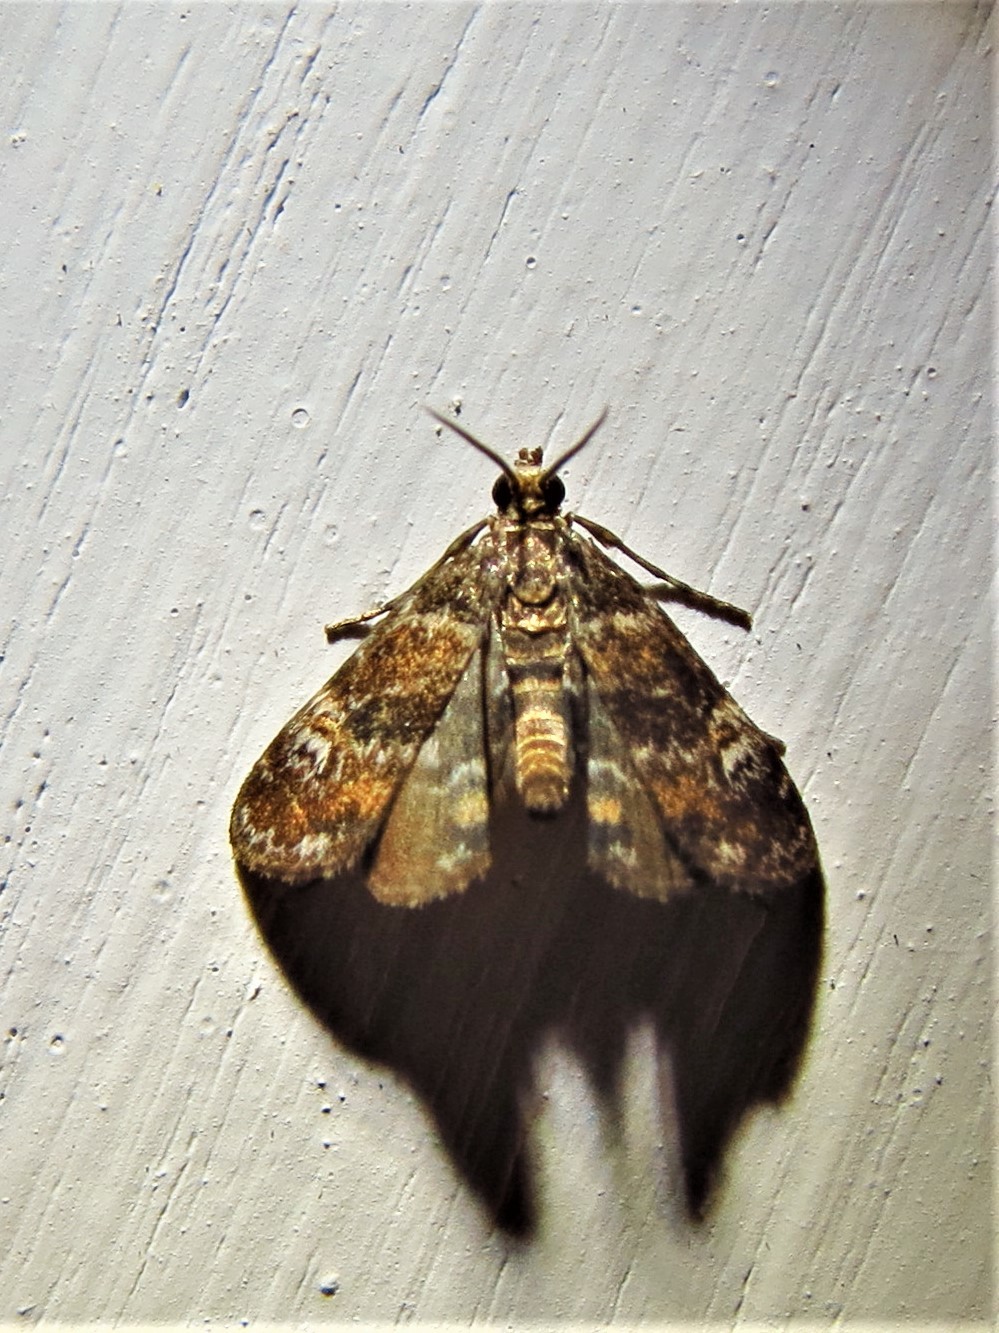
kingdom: Animalia
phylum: Arthropoda
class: Insecta
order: Lepidoptera
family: Crambidae
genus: Elophila
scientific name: Elophila obliteralis
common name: Waterlily leafcutter moth
